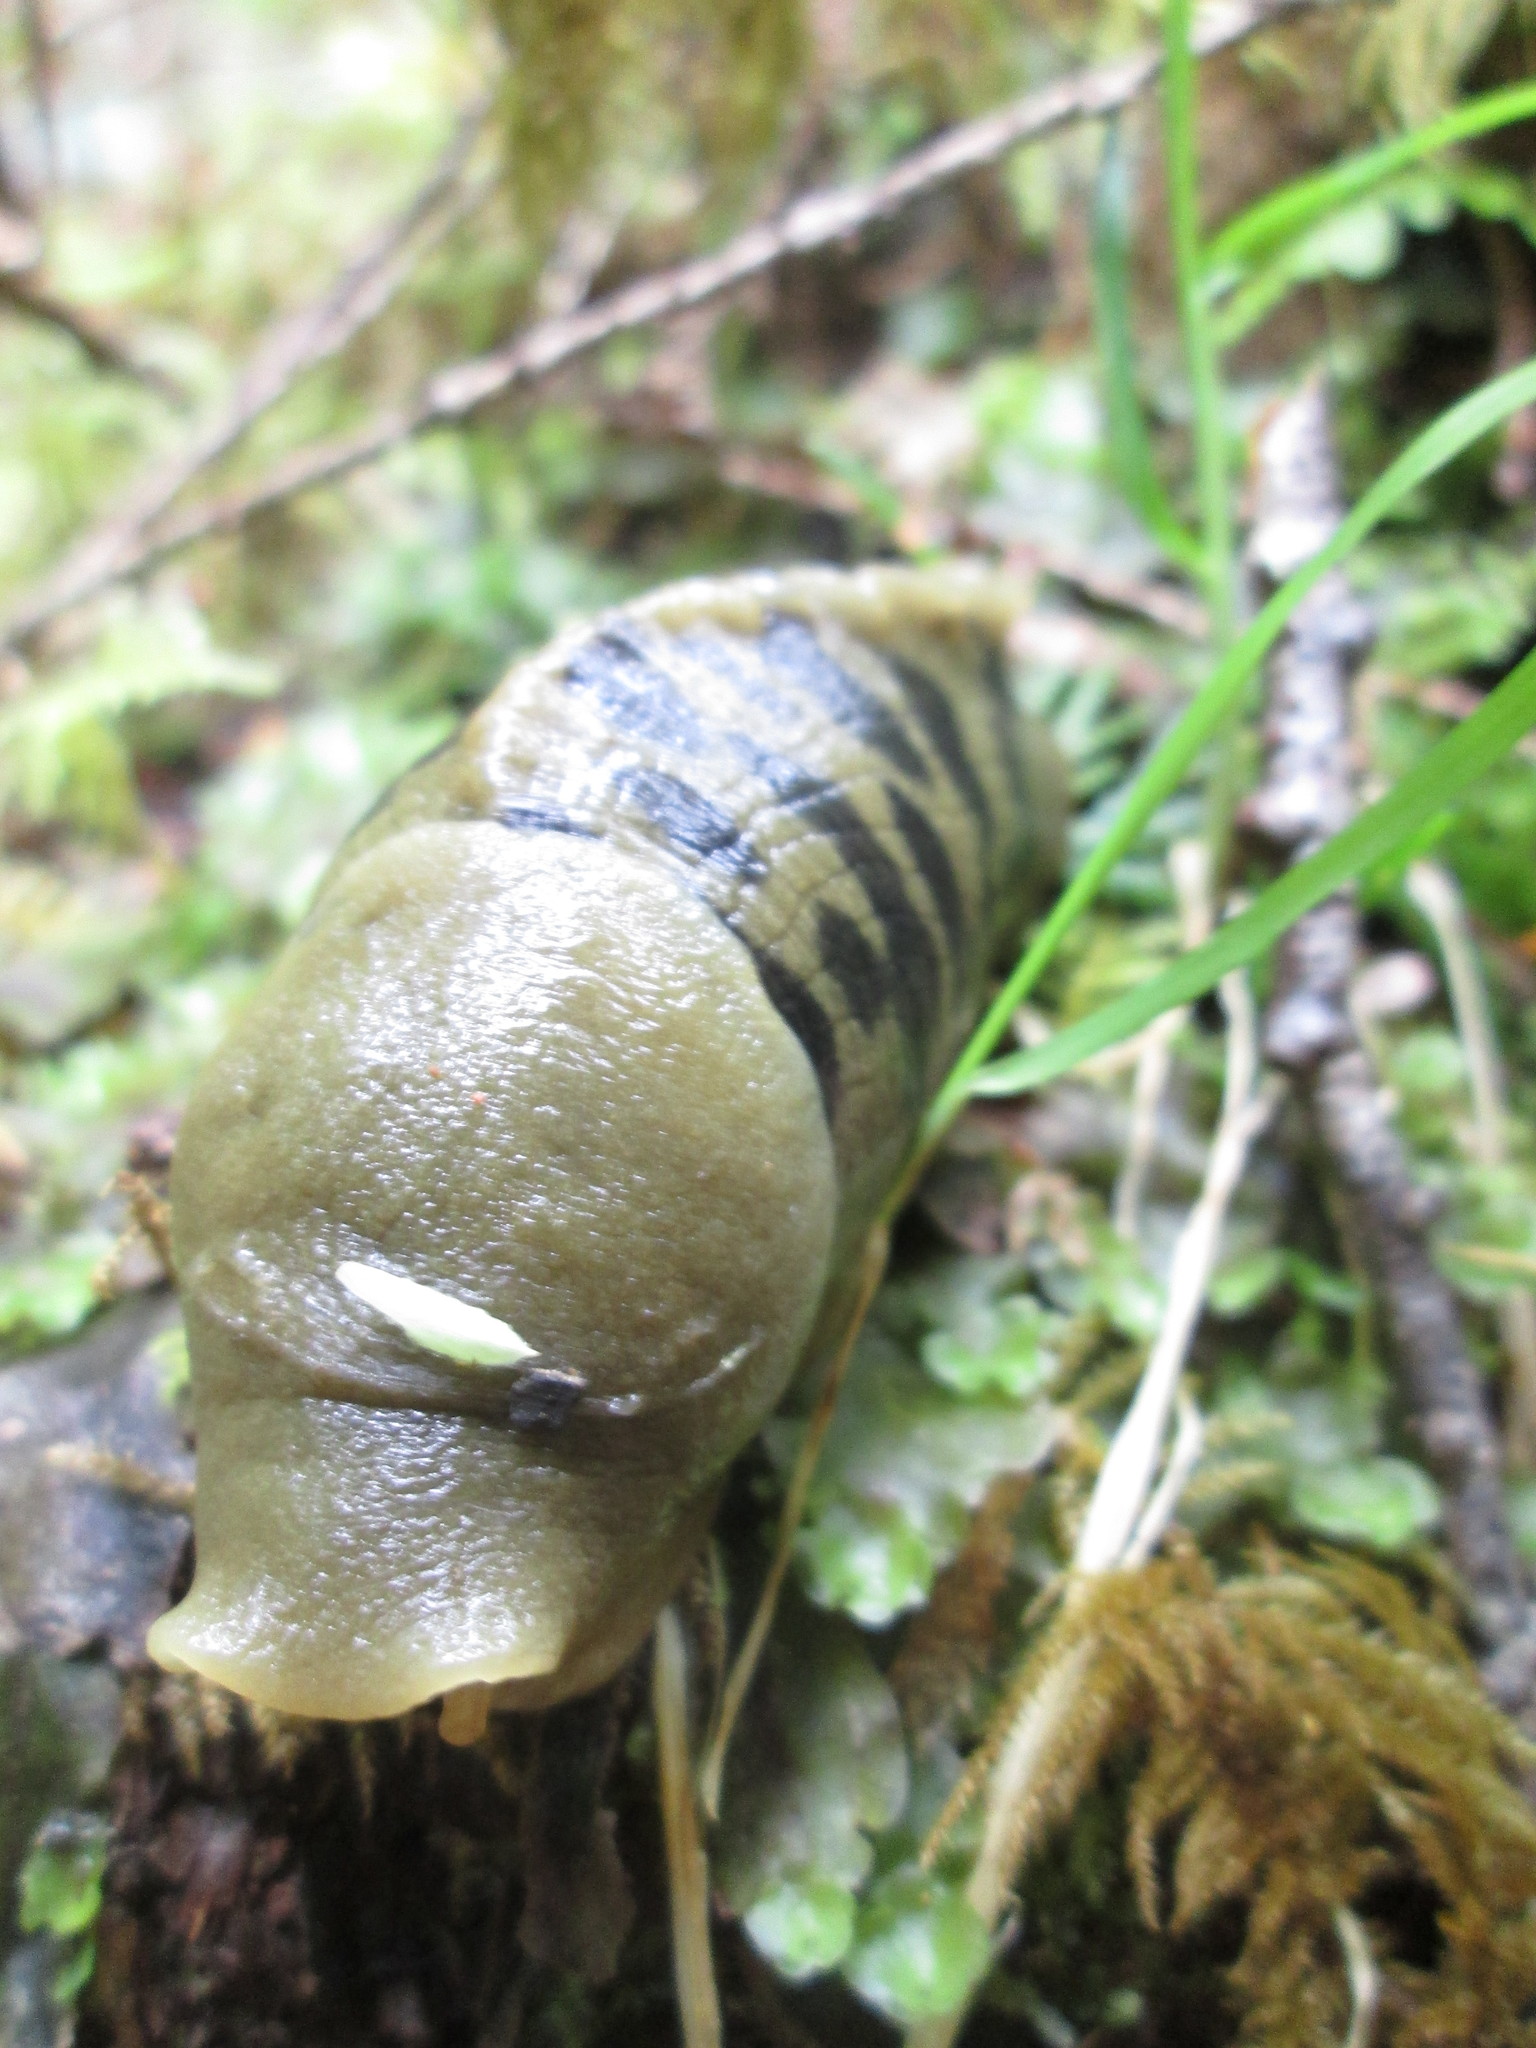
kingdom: Animalia
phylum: Mollusca
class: Gastropoda
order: Stylommatophora
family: Ariolimacidae
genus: Ariolimax
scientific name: Ariolimax columbianus
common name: Pacific banana slug
